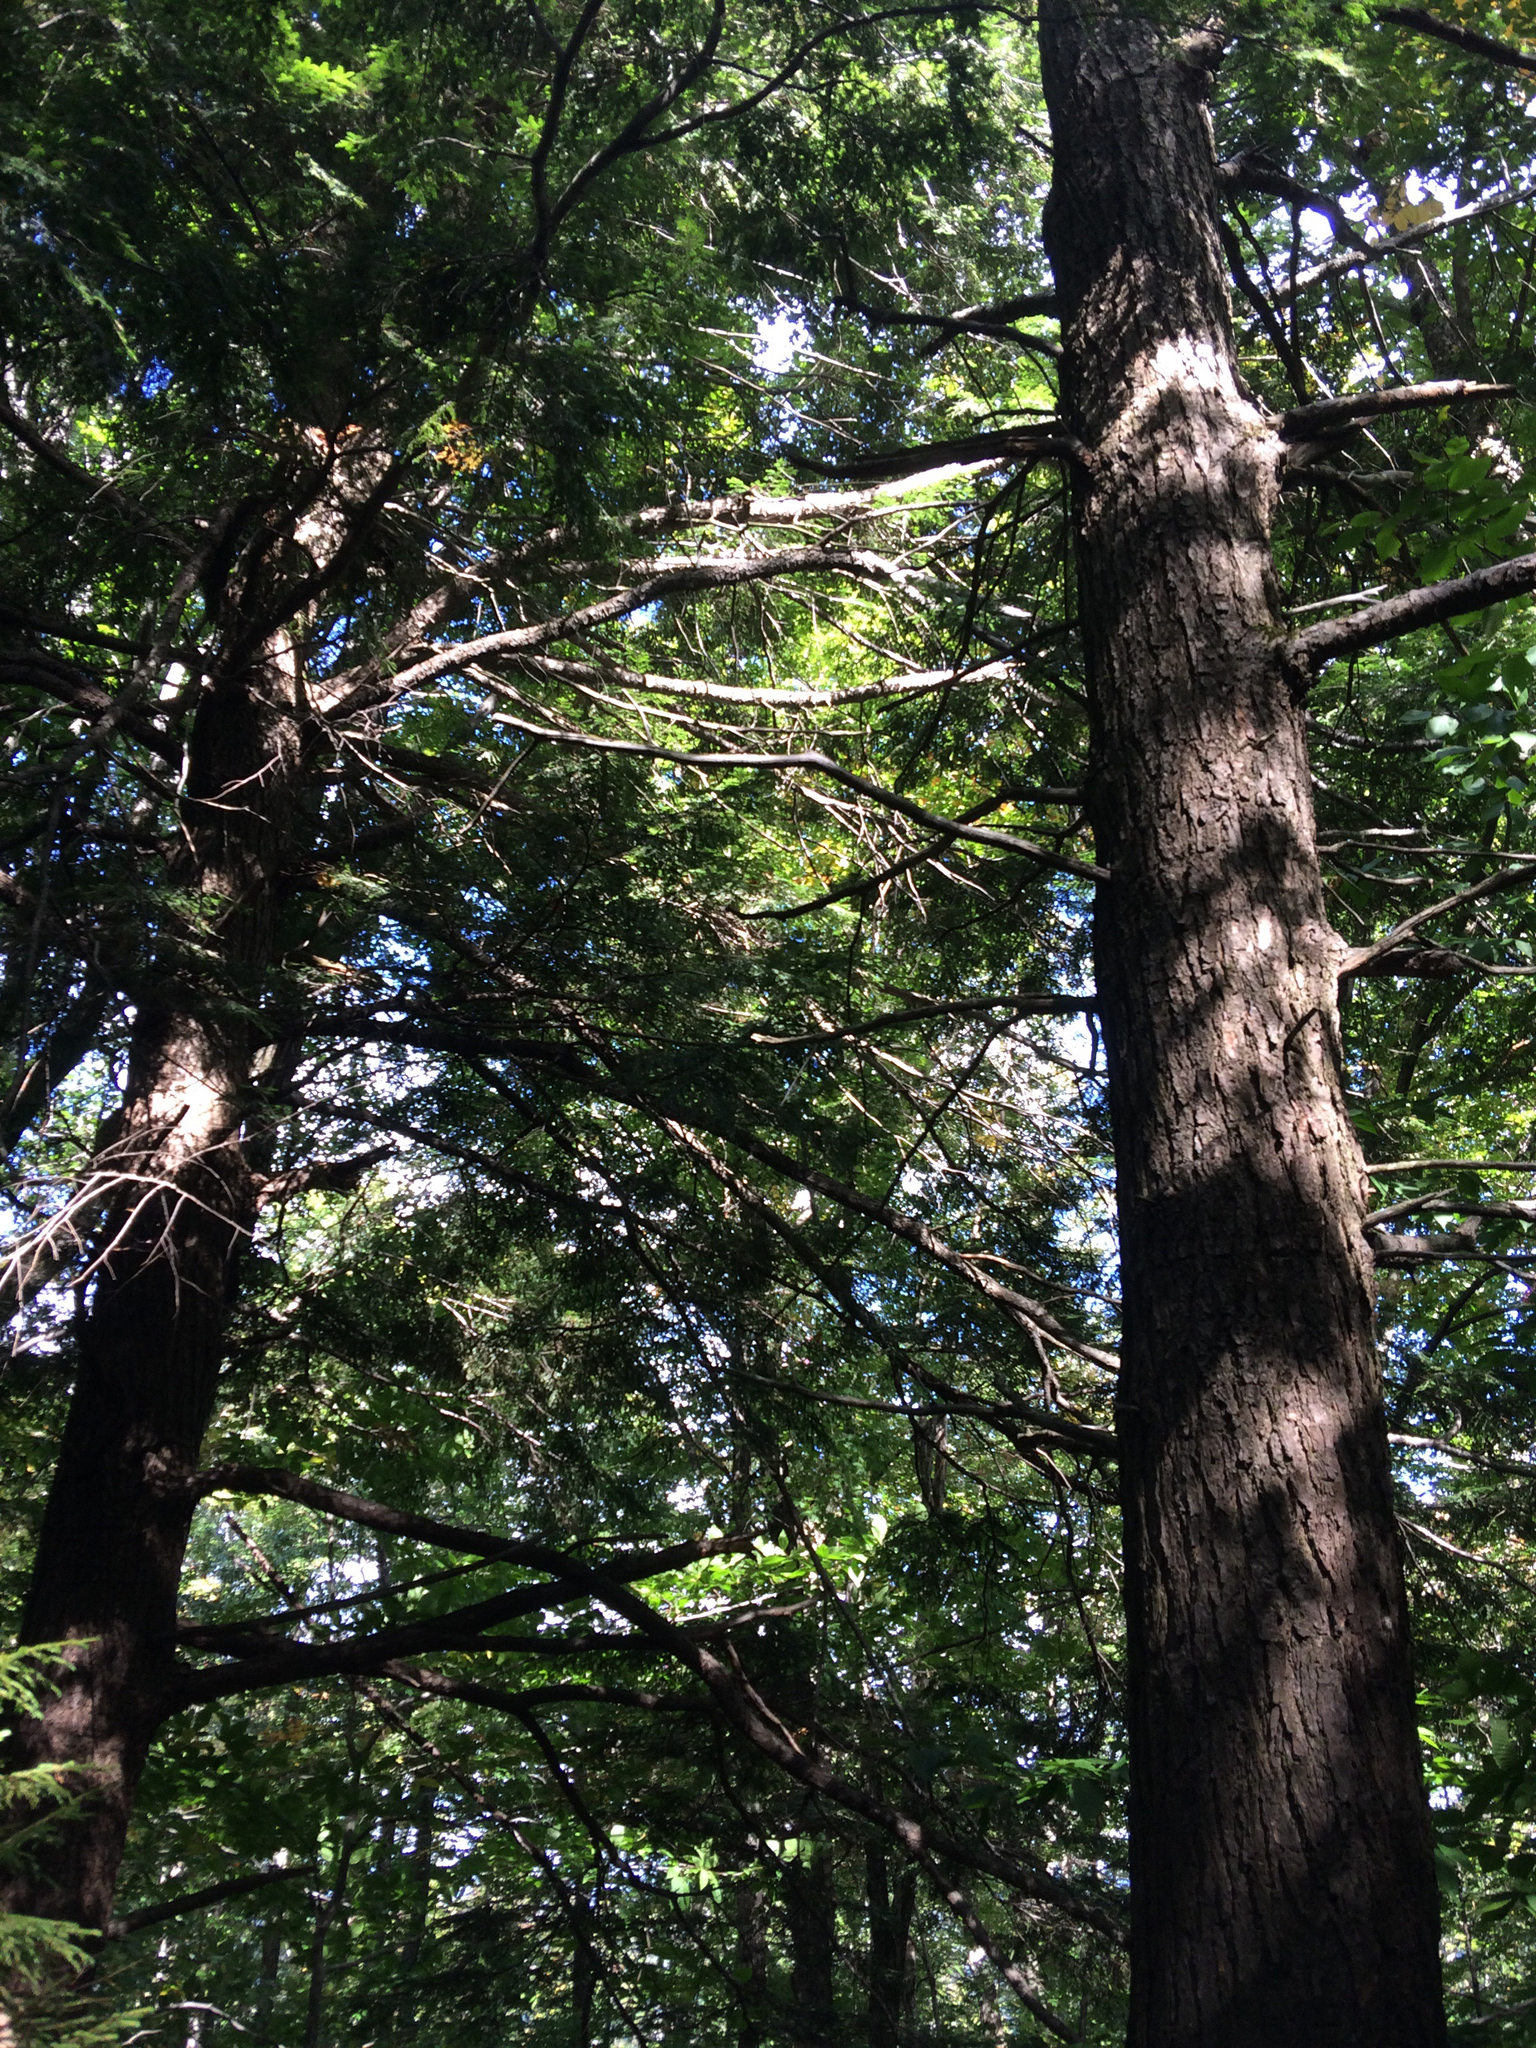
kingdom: Plantae
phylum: Tracheophyta
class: Pinopsida
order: Pinales
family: Pinaceae
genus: Tsuga
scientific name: Tsuga canadensis
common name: Eastern hemlock
